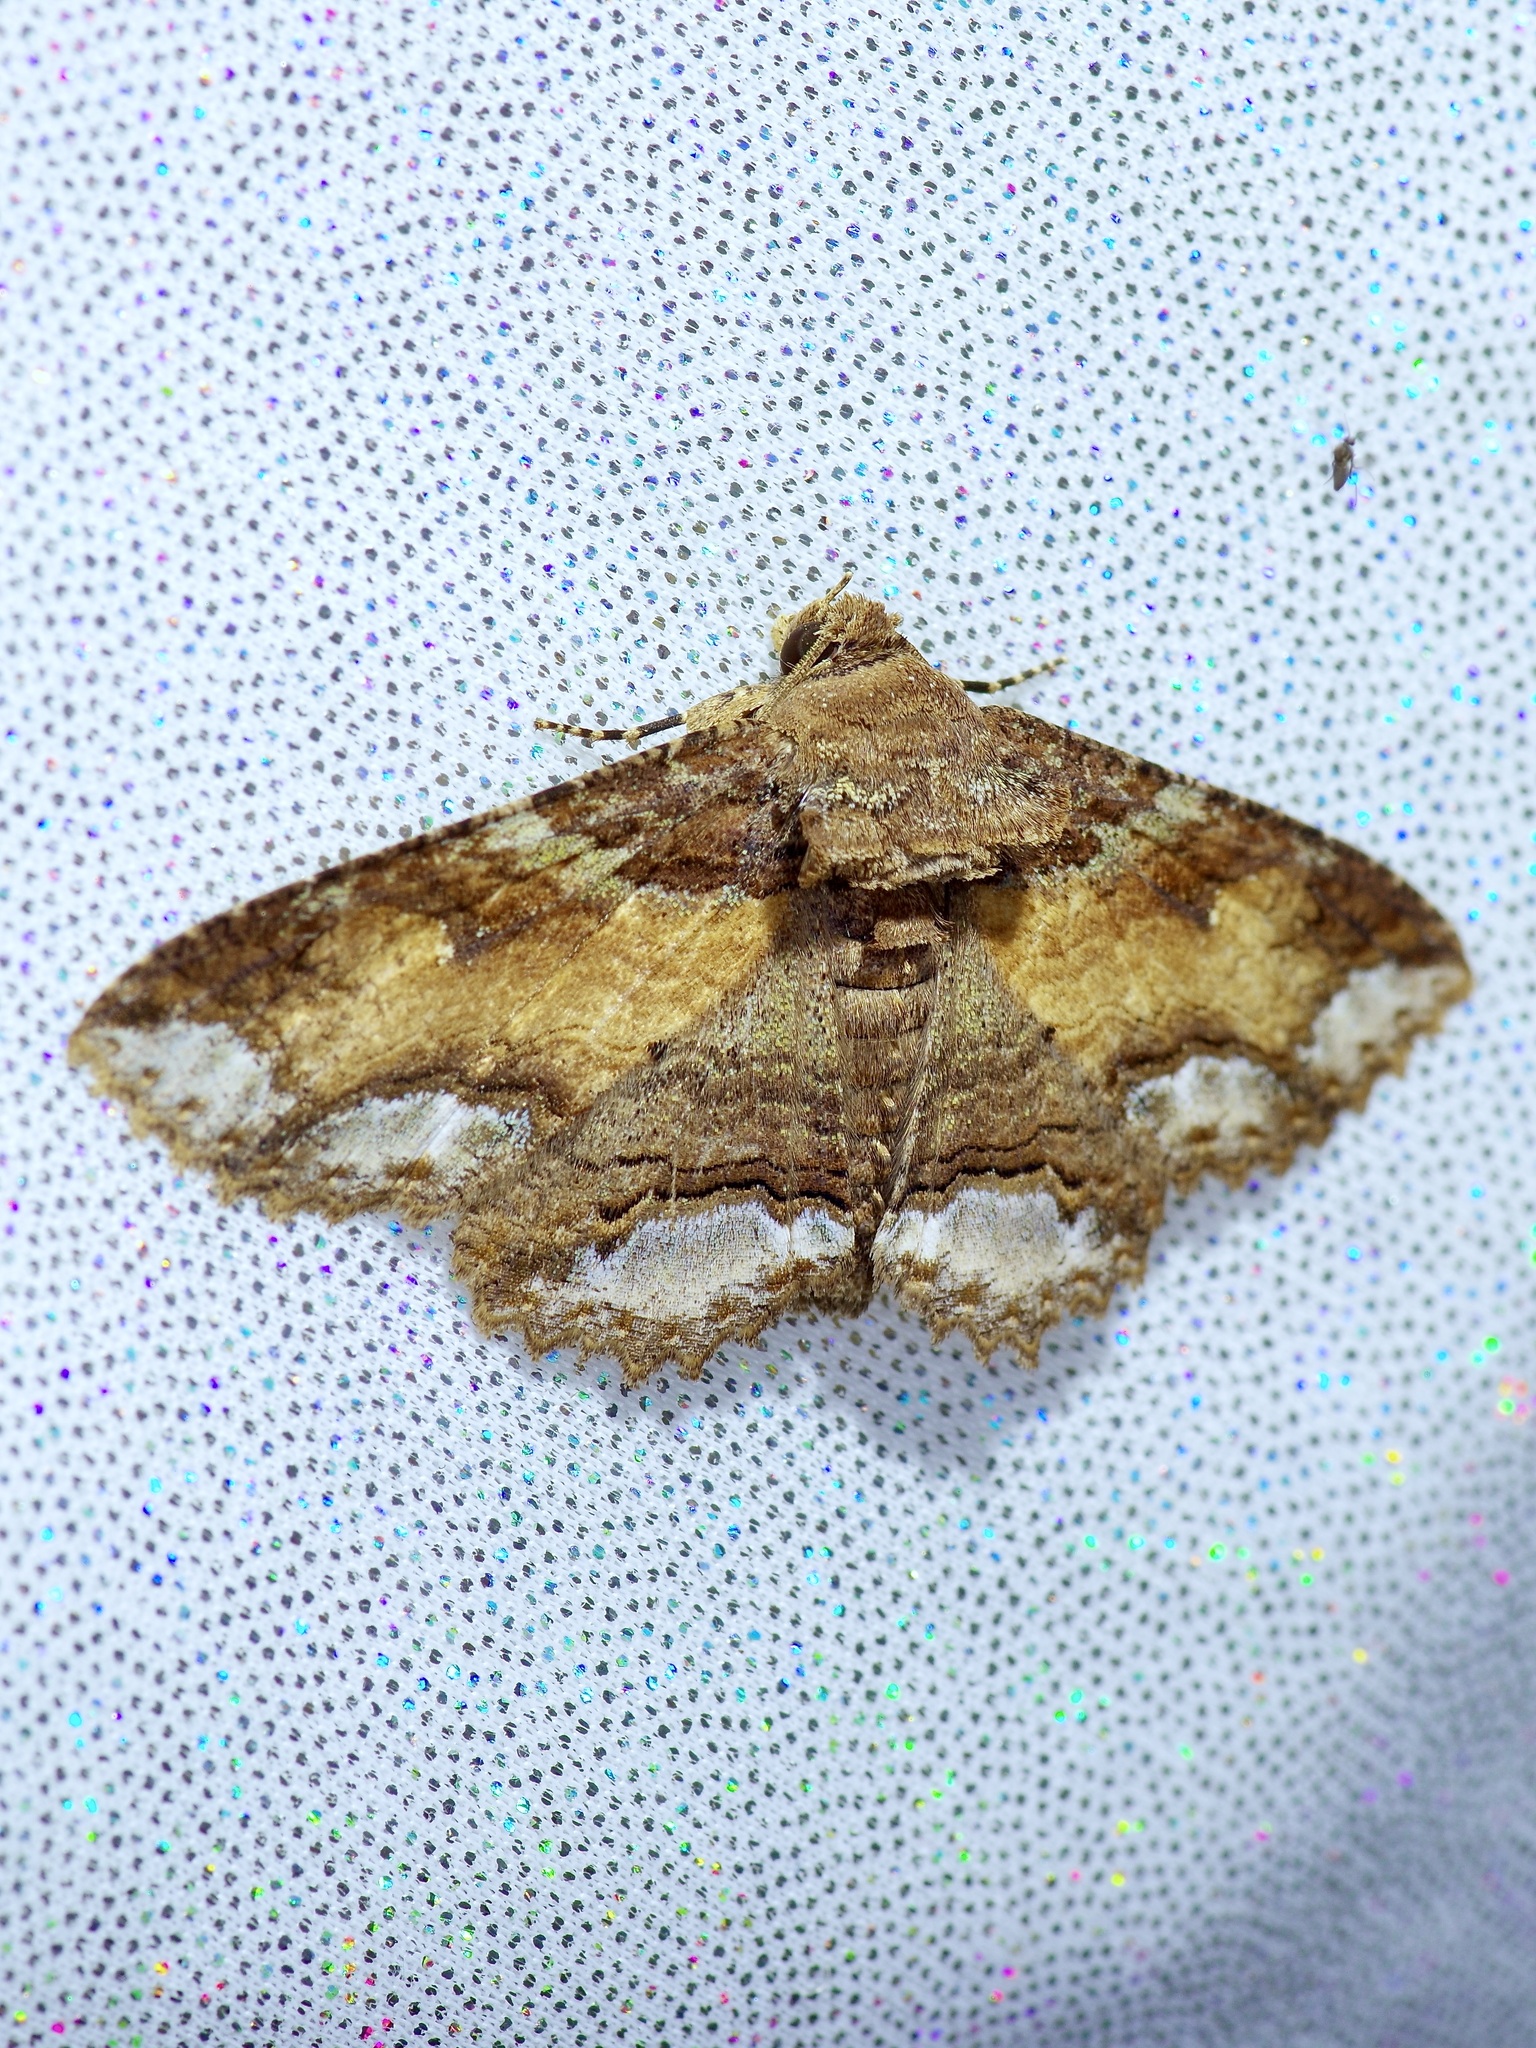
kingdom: Animalia
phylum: Arthropoda
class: Insecta
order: Lepidoptera
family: Erebidae
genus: Zale
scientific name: Zale lunata
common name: Lunate zale moth
